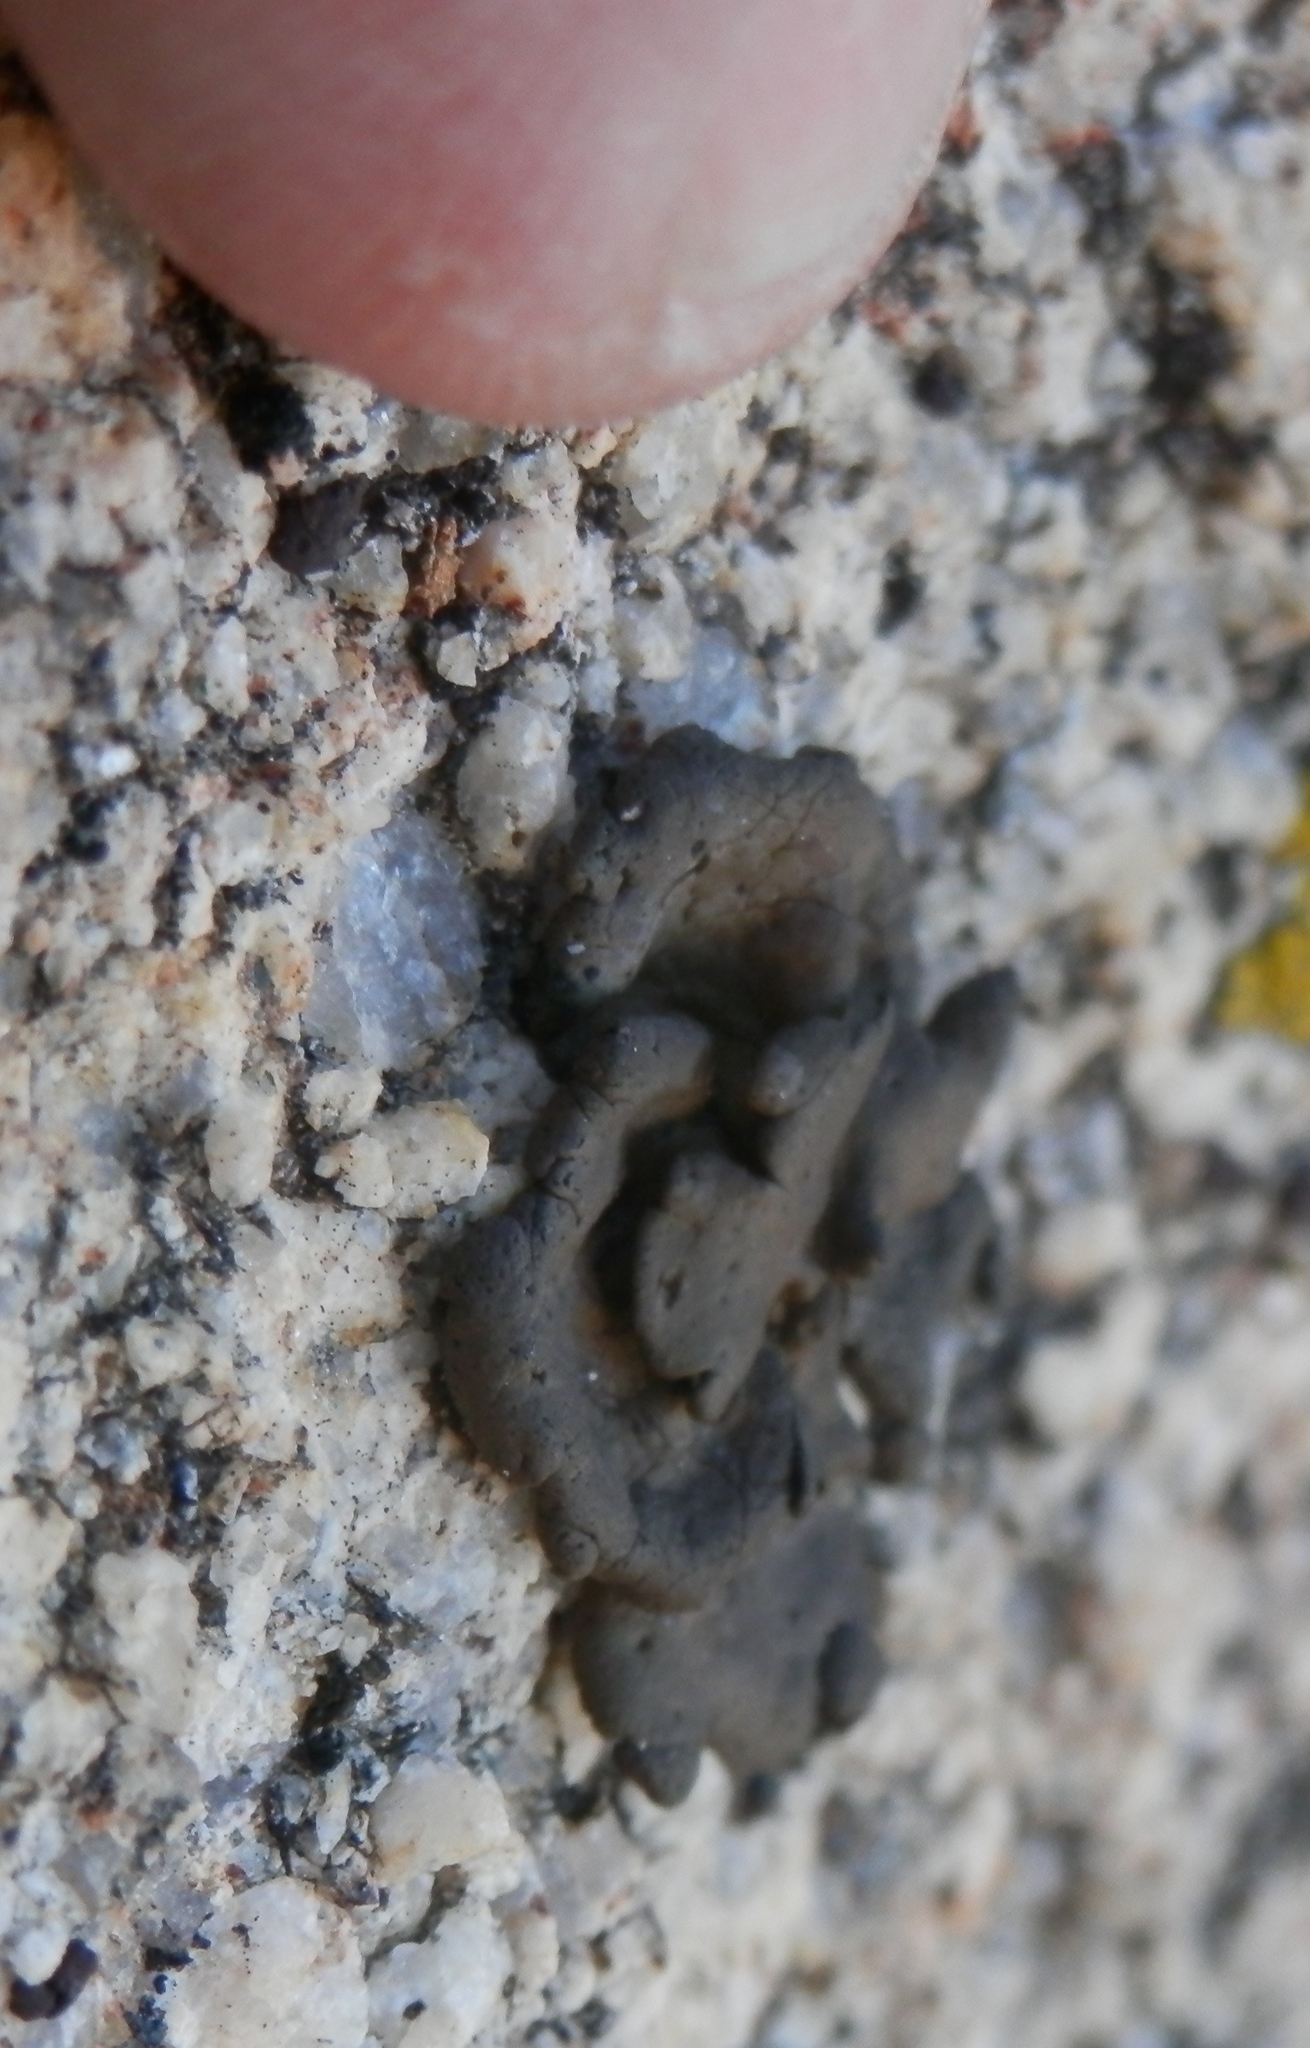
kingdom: Fungi
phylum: Ascomycota
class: Lecanoromycetes
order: Umbilicariales
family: Umbilicariaceae
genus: Umbilicaria
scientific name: Umbilicaria phaea
